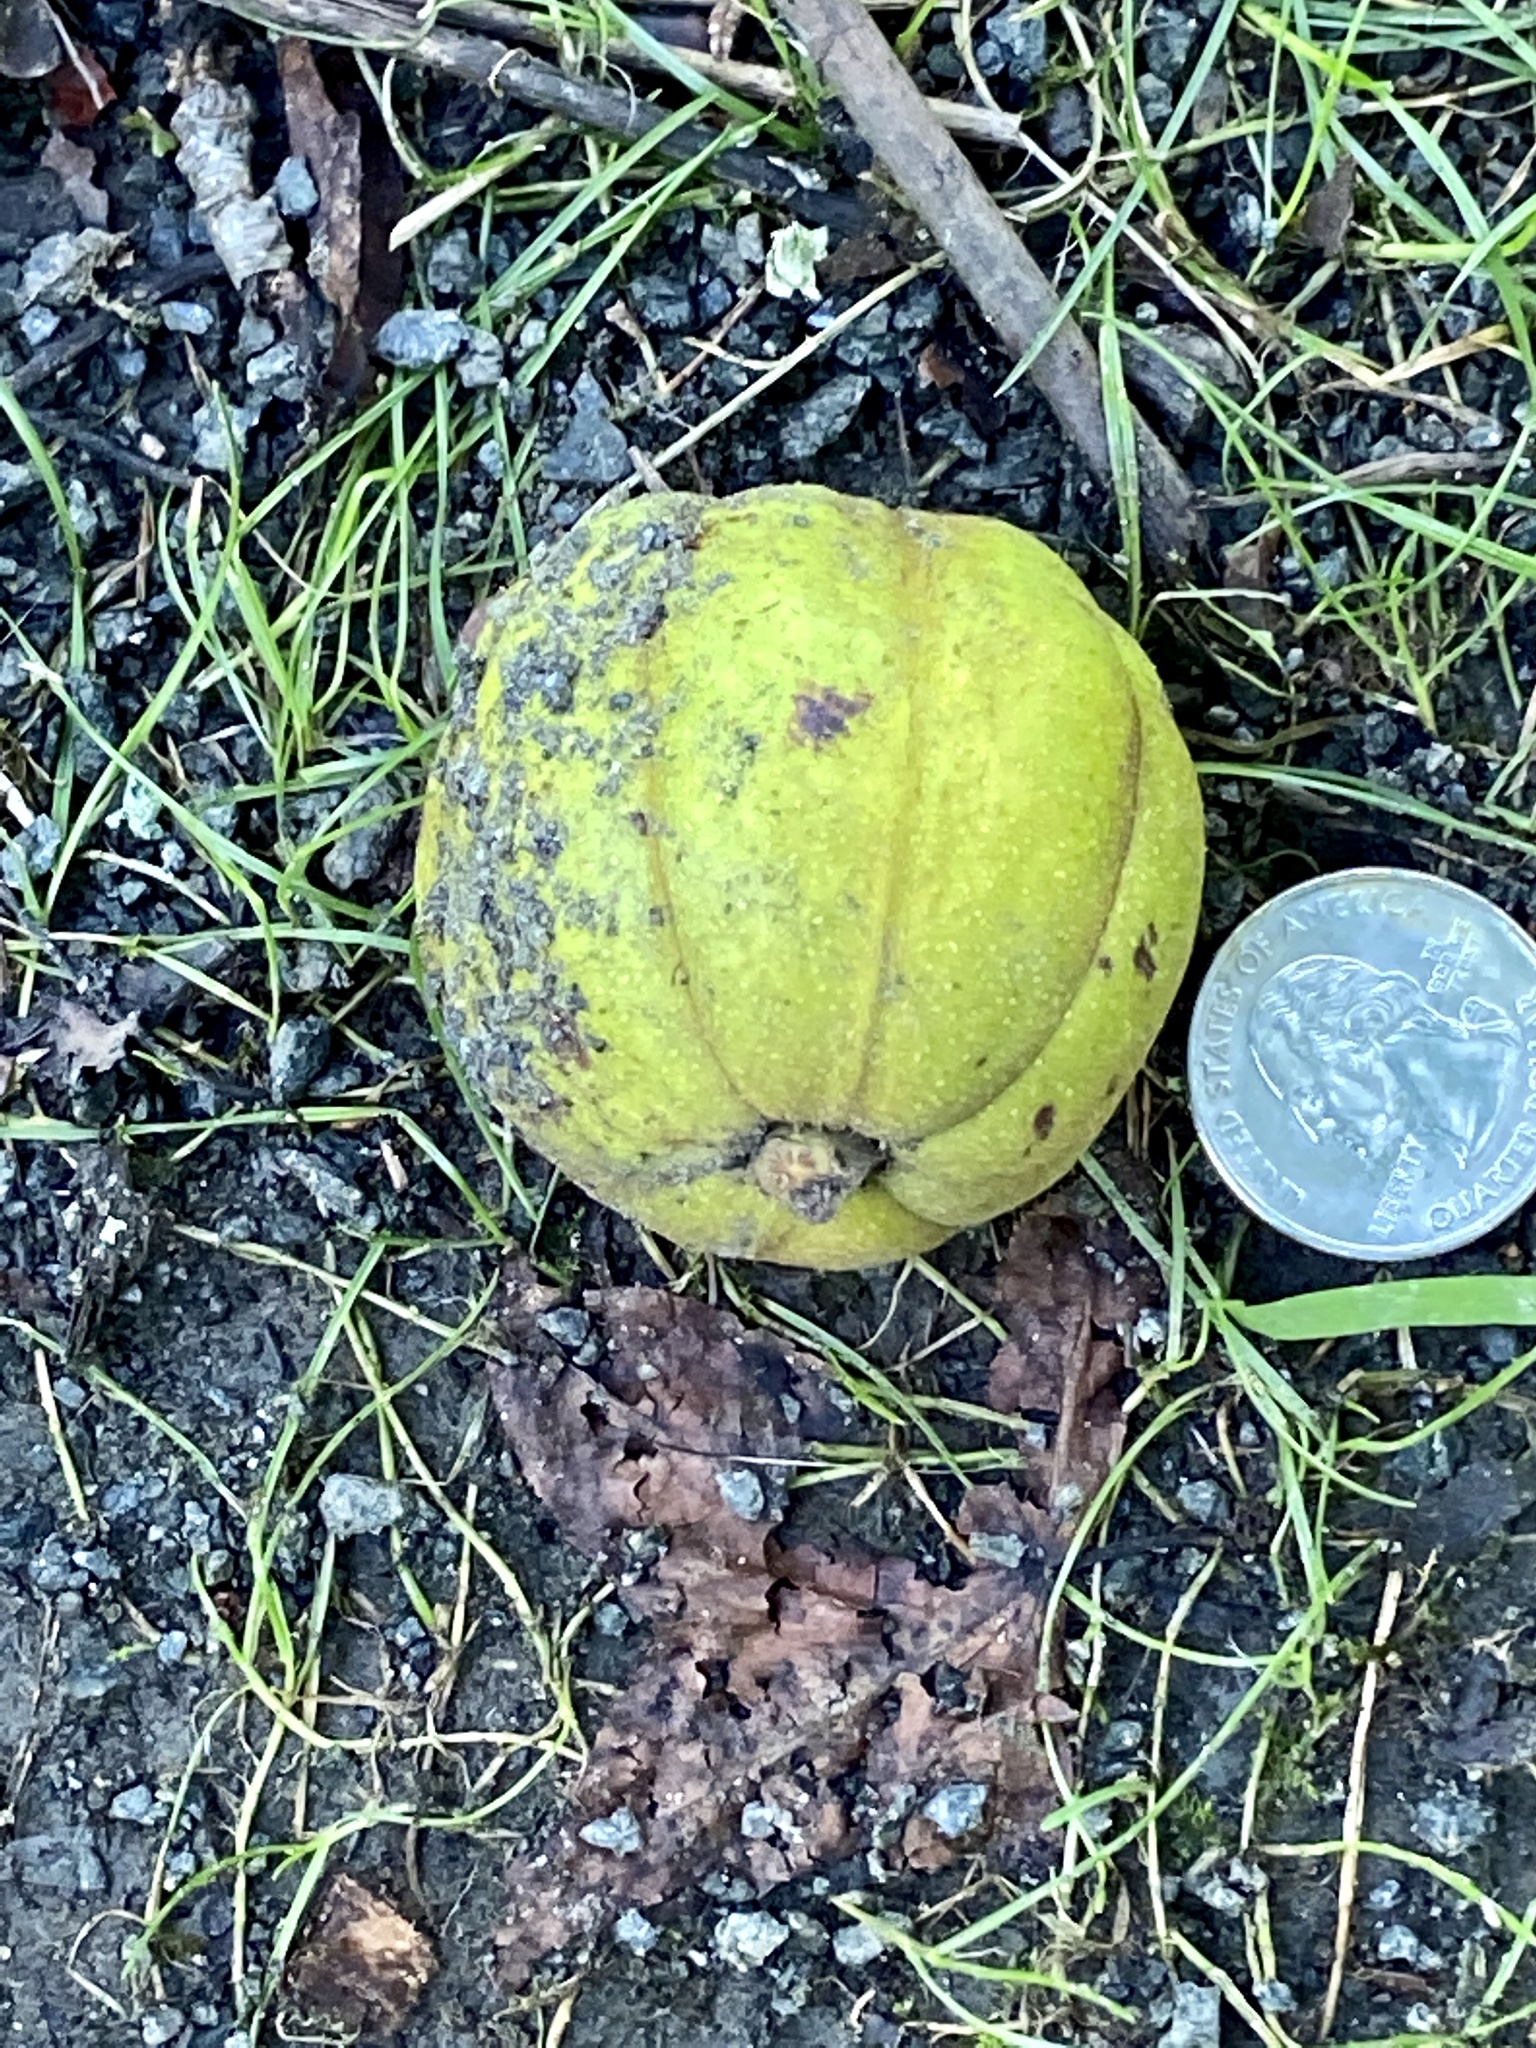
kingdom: Plantae
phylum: Tracheophyta
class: Magnoliopsida
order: Fagales
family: Juglandaceae
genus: Carya
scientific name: Carya ovata
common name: Shagbark hickory
